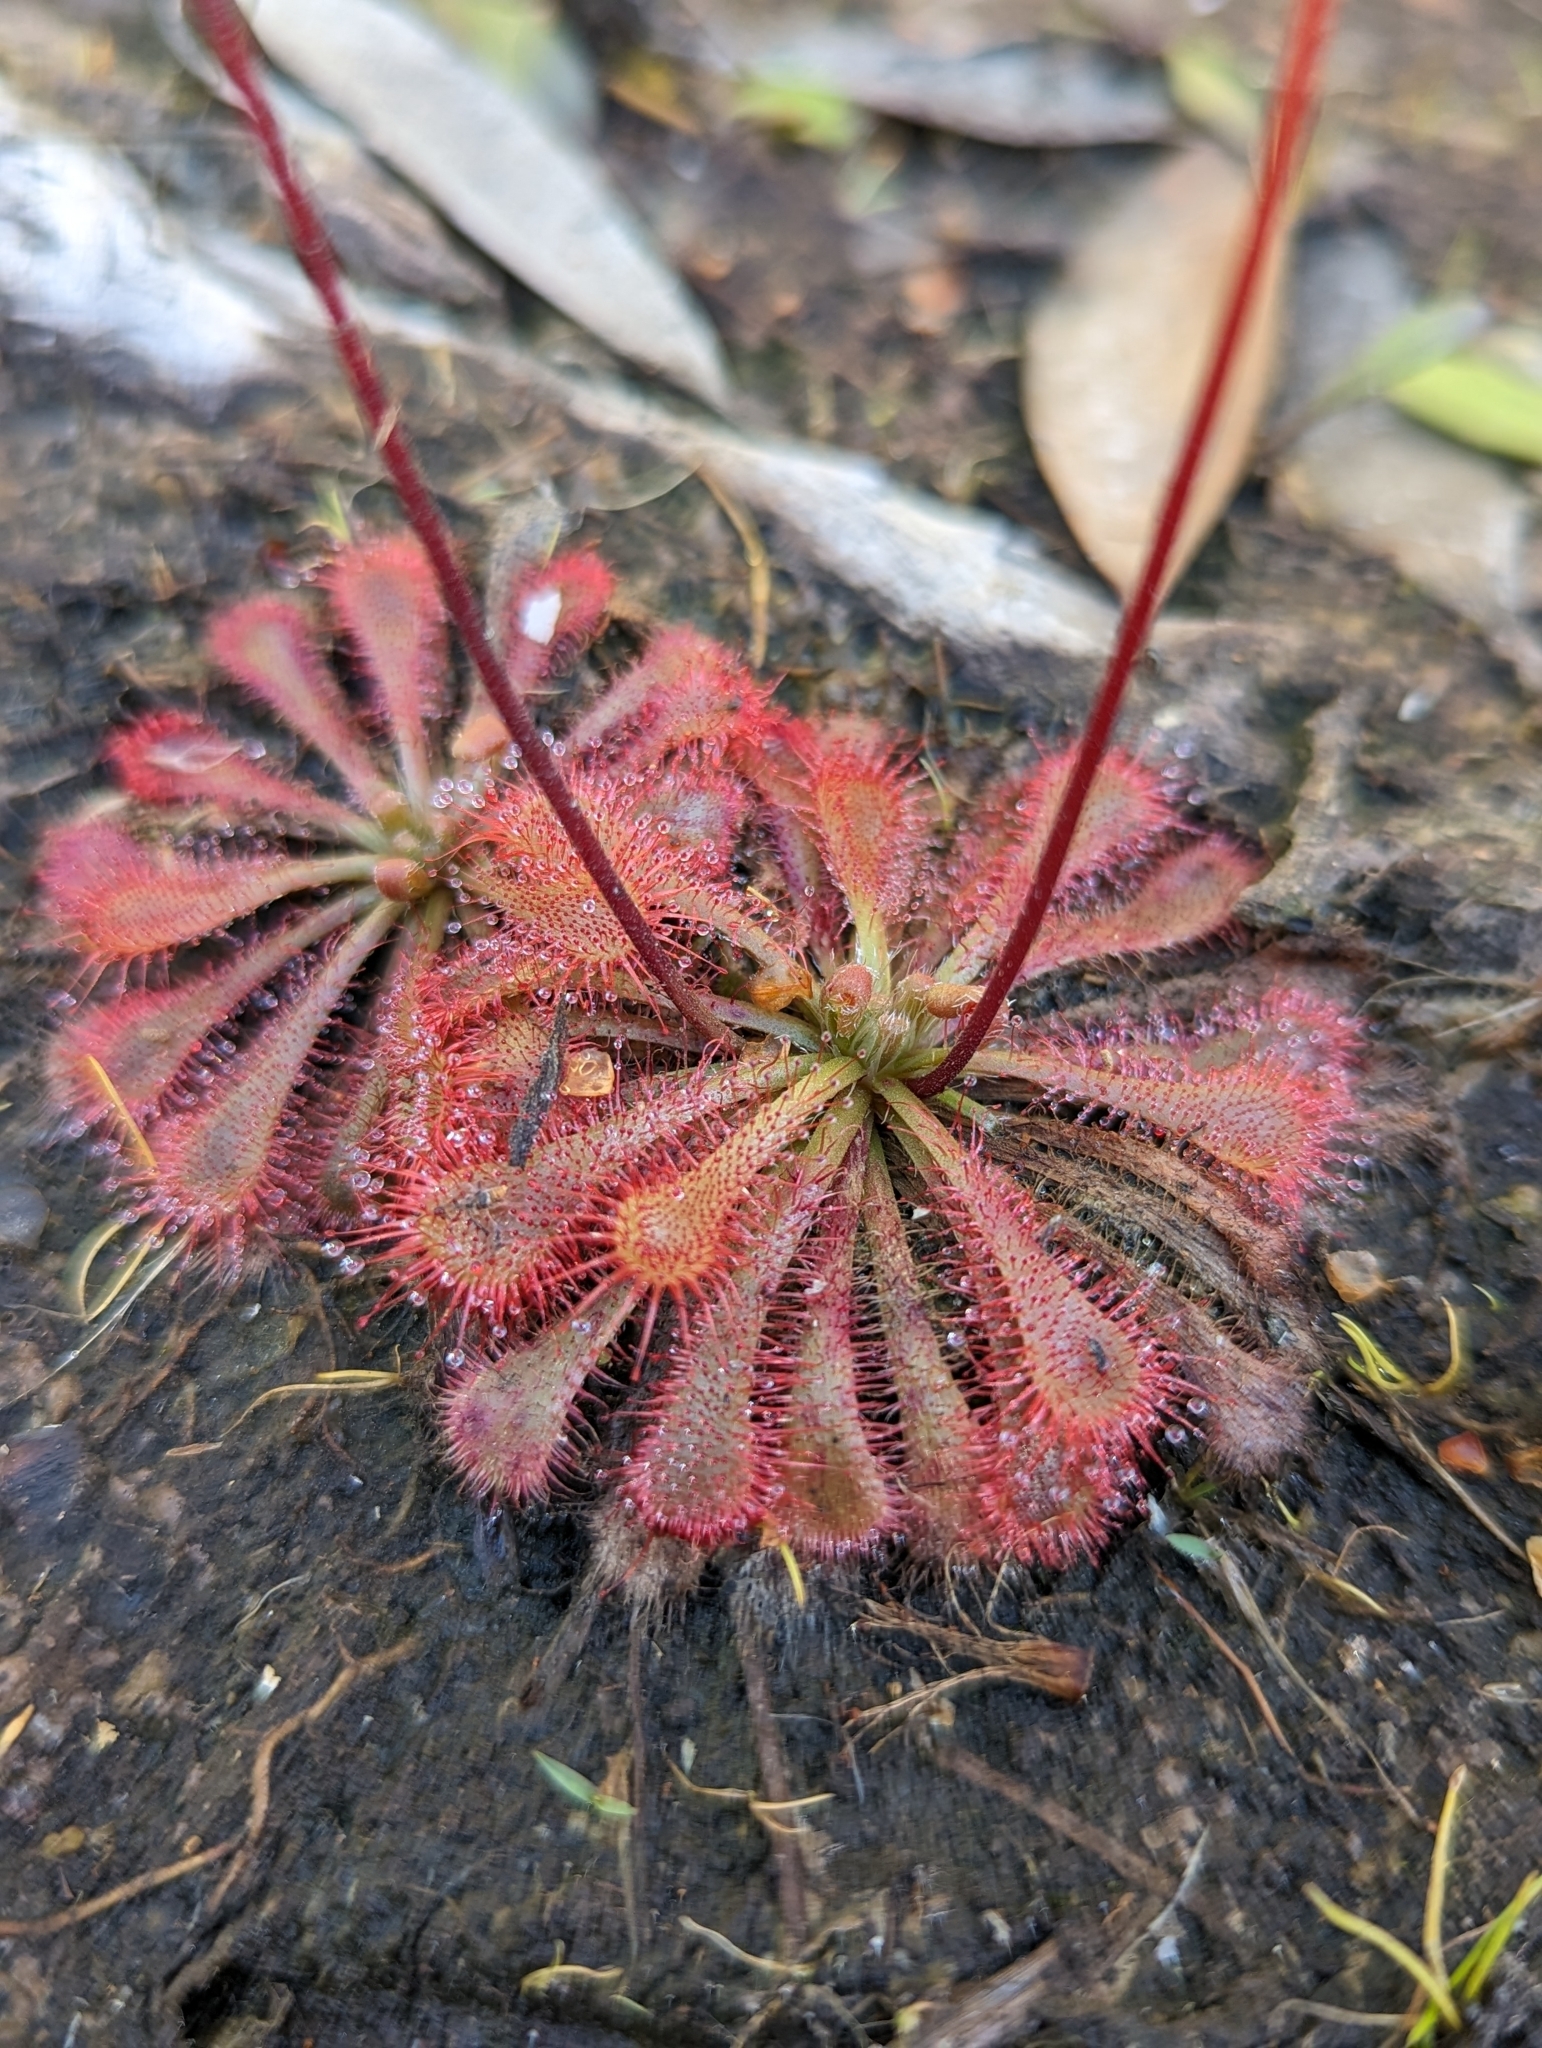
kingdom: Plantae
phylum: Tracheophyta
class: Magnoliopsida
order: Caryophyllales
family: Droseraceae
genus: Drosera
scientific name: Drosera spatulata
